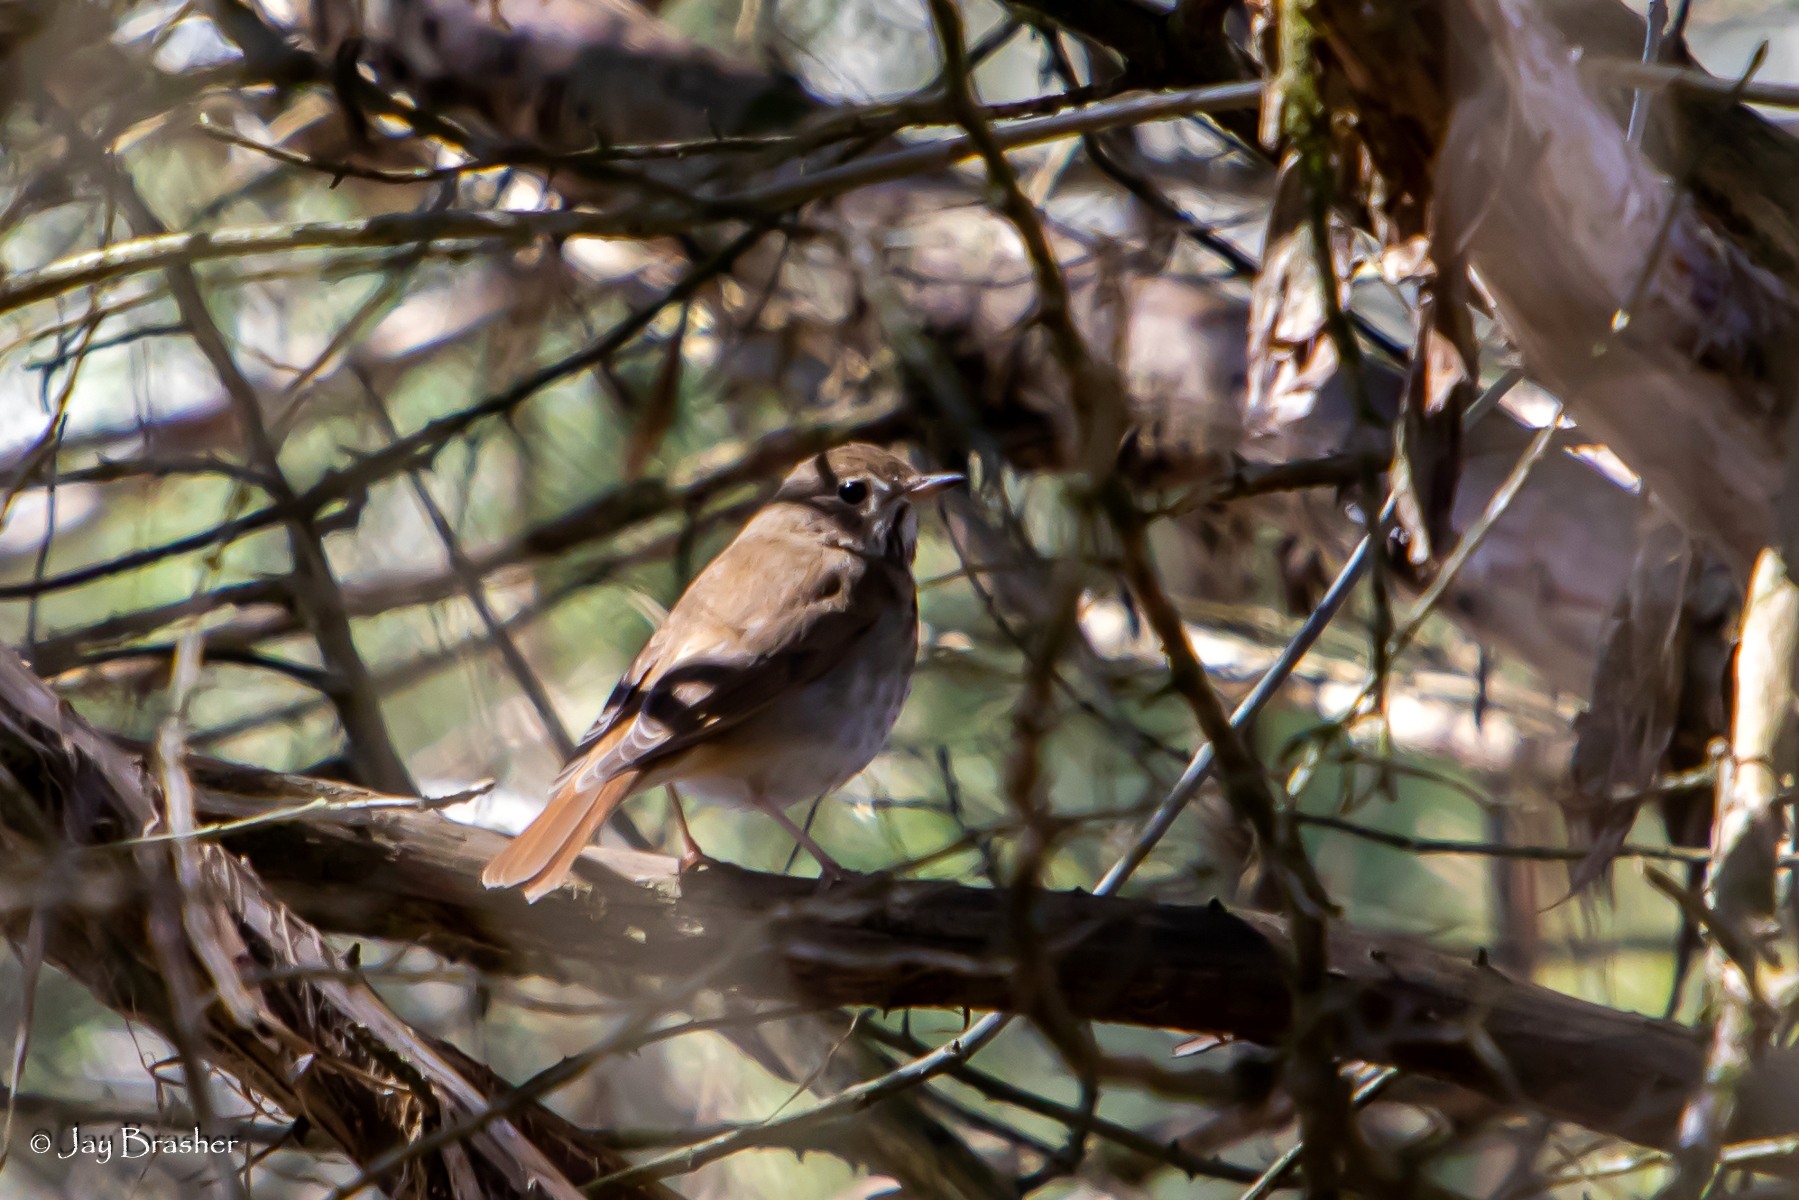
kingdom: Animalia
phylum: Chordata
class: Aves
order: Passeriformes
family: Turdidae
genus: Catharus
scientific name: Catharus guttatus
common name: Hermit thrush
